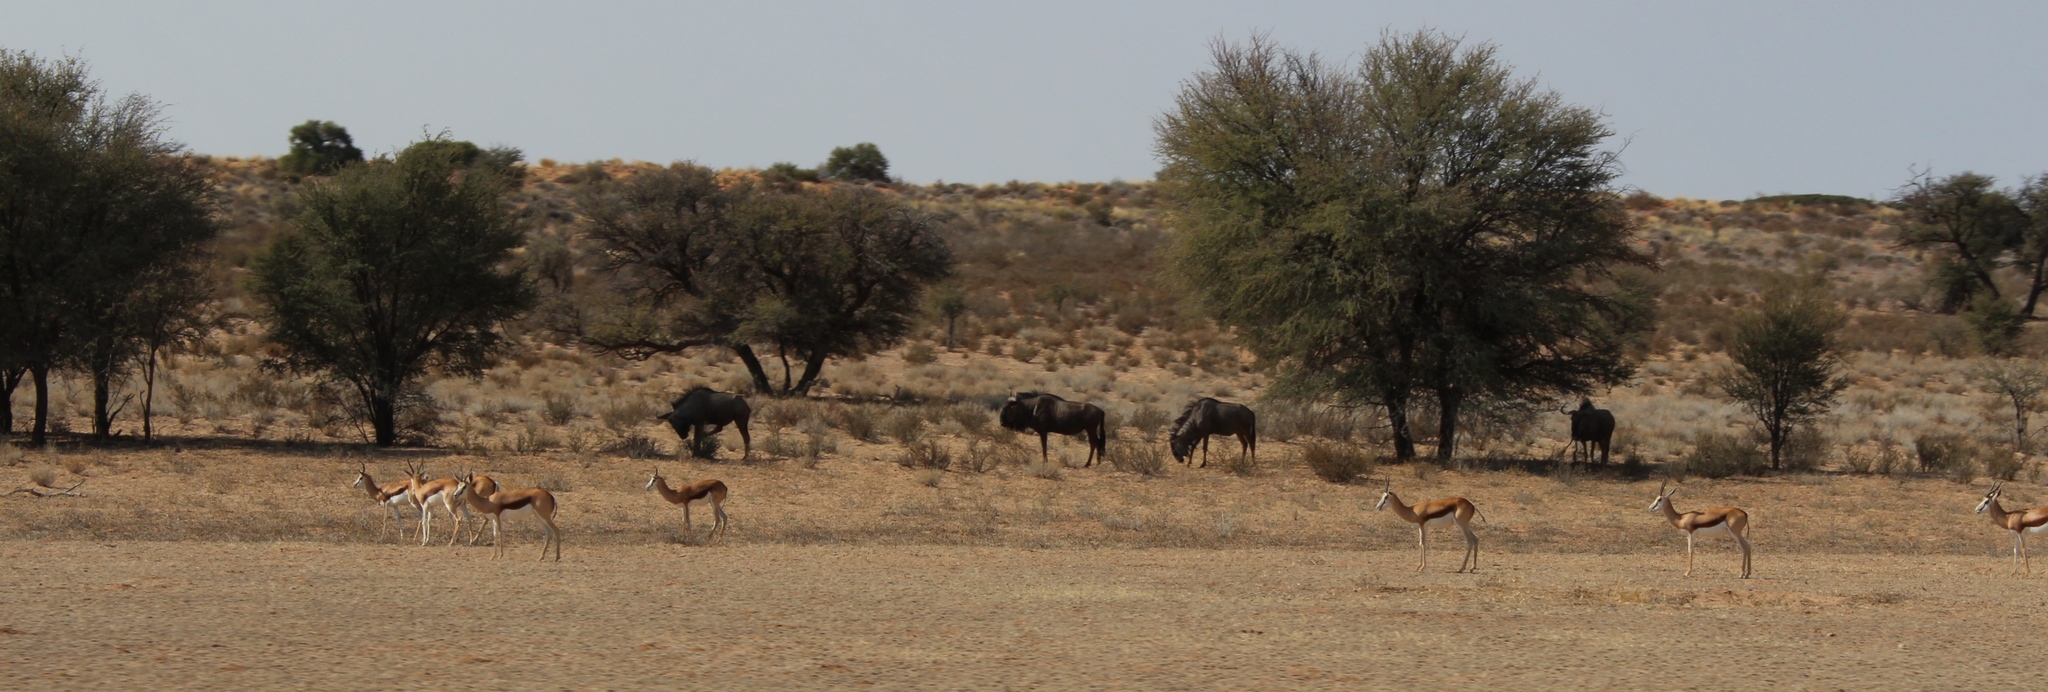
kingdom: Animalia
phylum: Chordata
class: Mammalia
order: Artiodactyla
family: Bovidae
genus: Connochaetes
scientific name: Connochaetes taurinus
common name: Blue wildebeest
